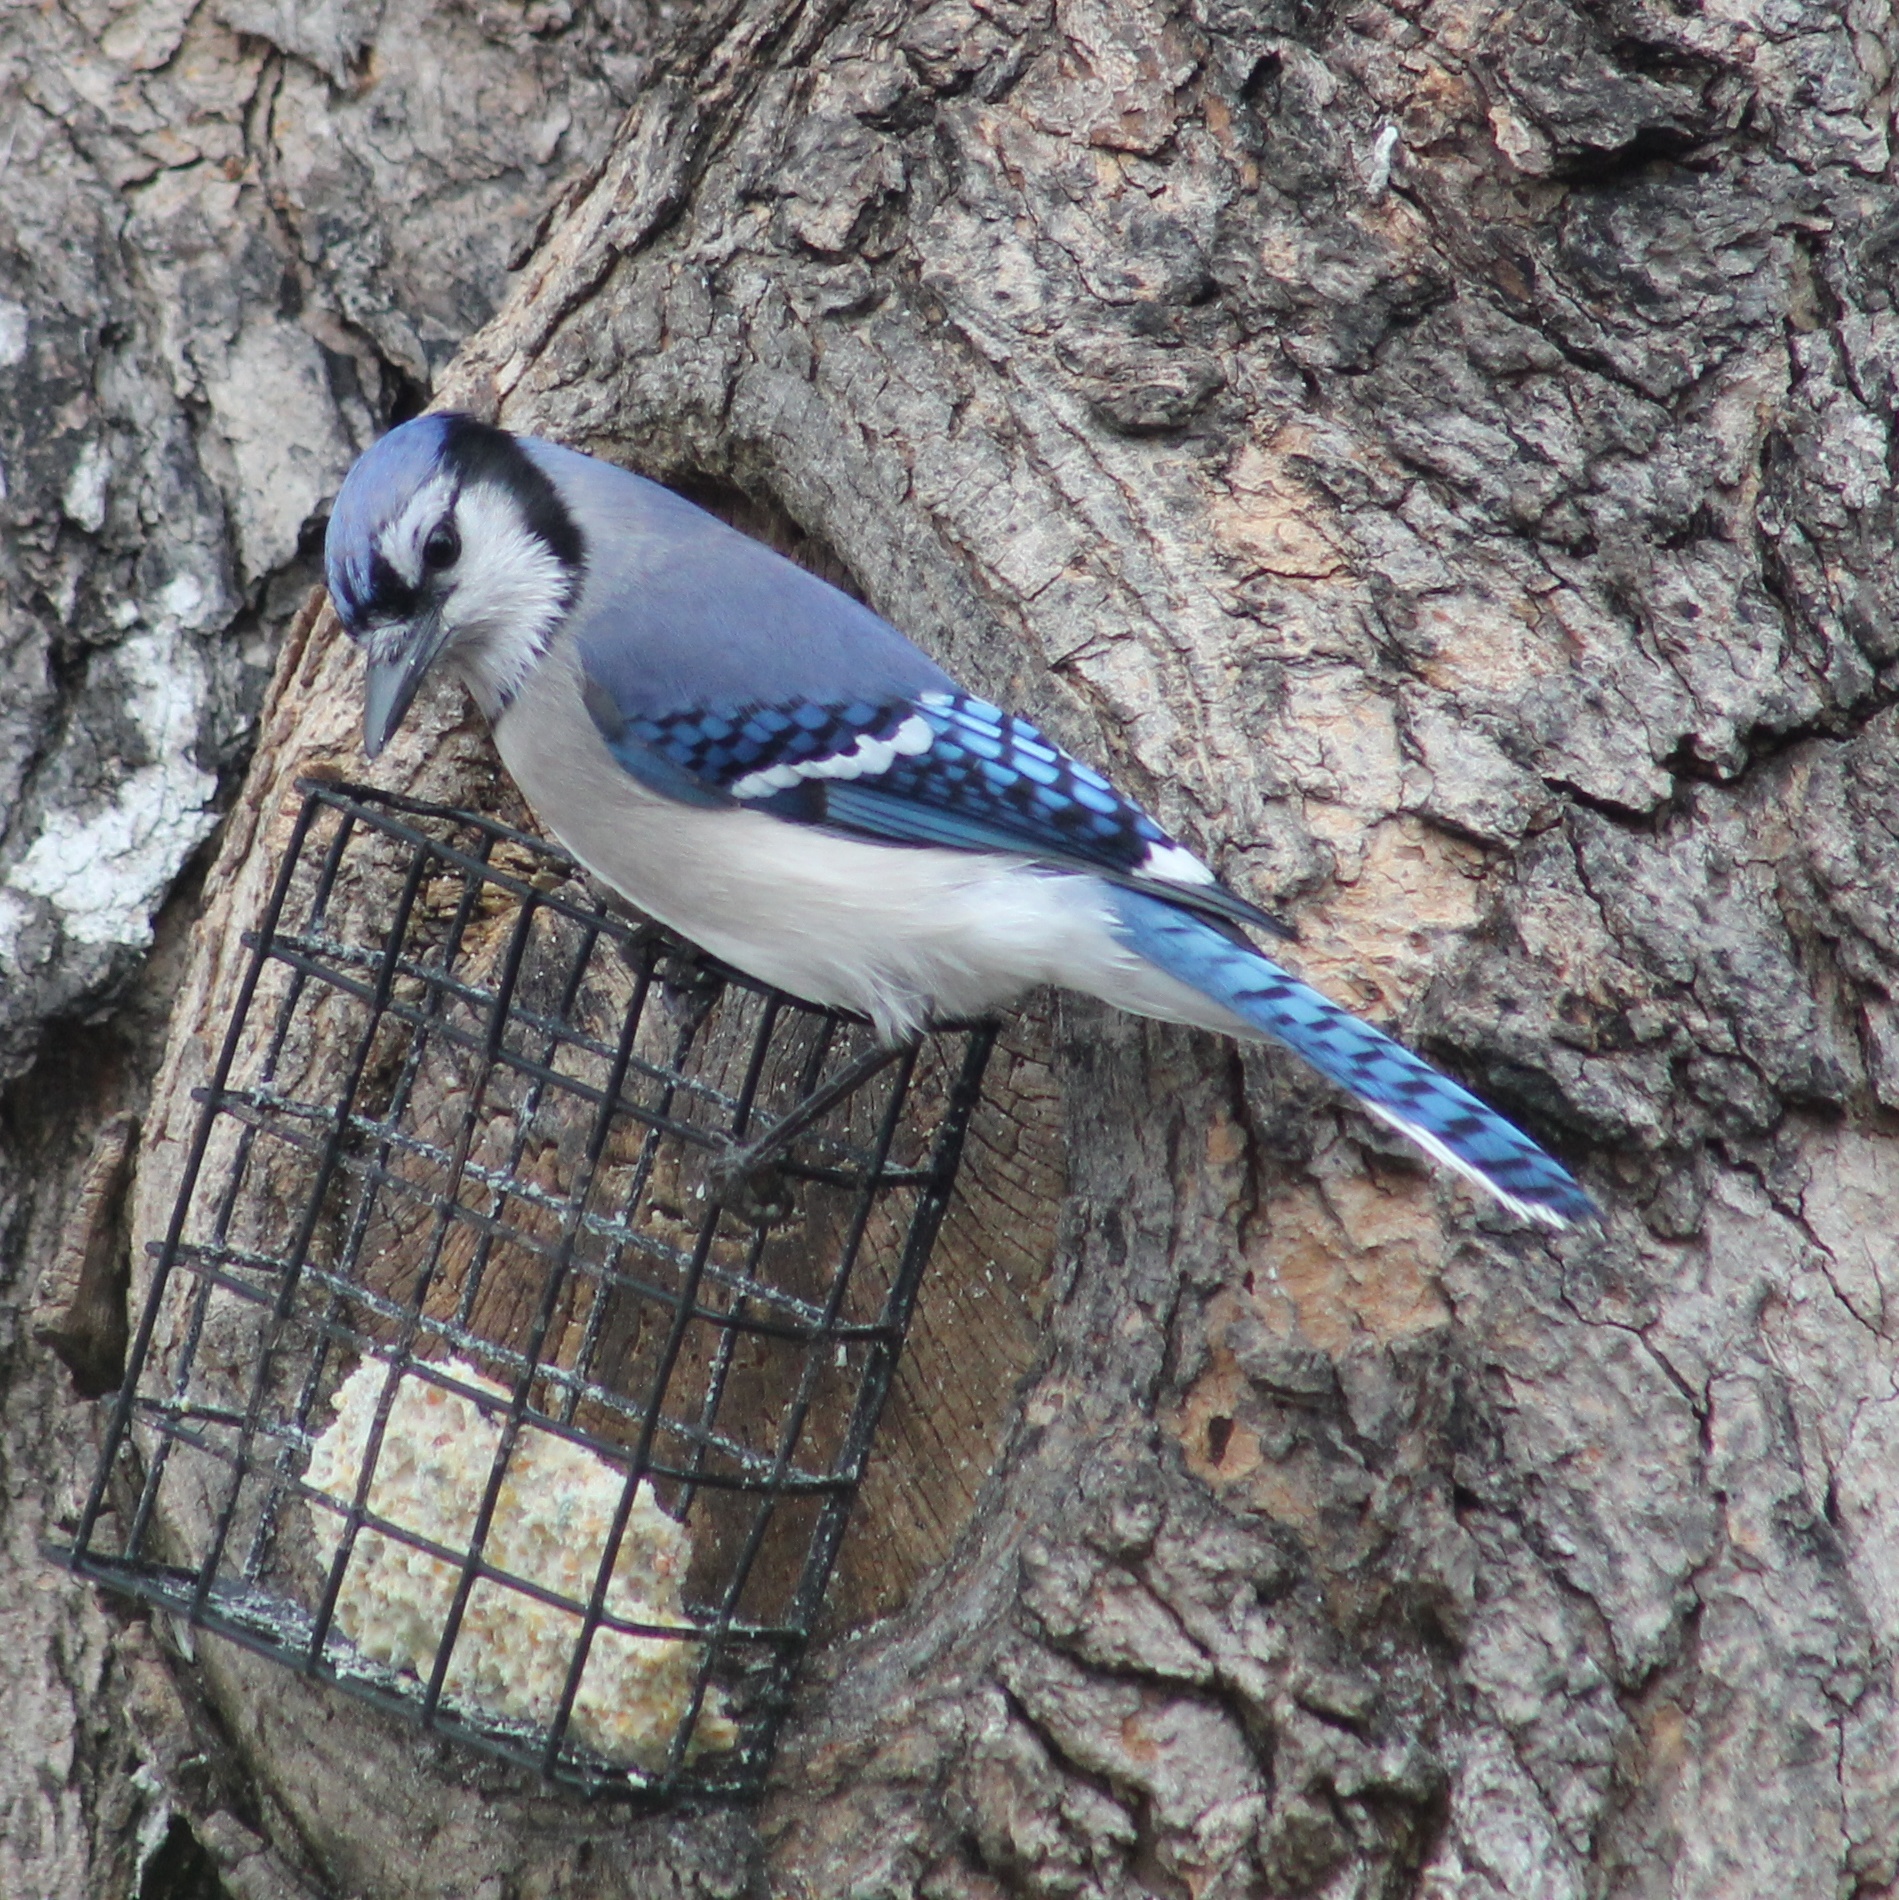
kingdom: Animalia
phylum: Chordata
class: Aves
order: Passeriformes
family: Corvidae
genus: Cyanocitta
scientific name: Cyanocitta cristata
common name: Blue jay
